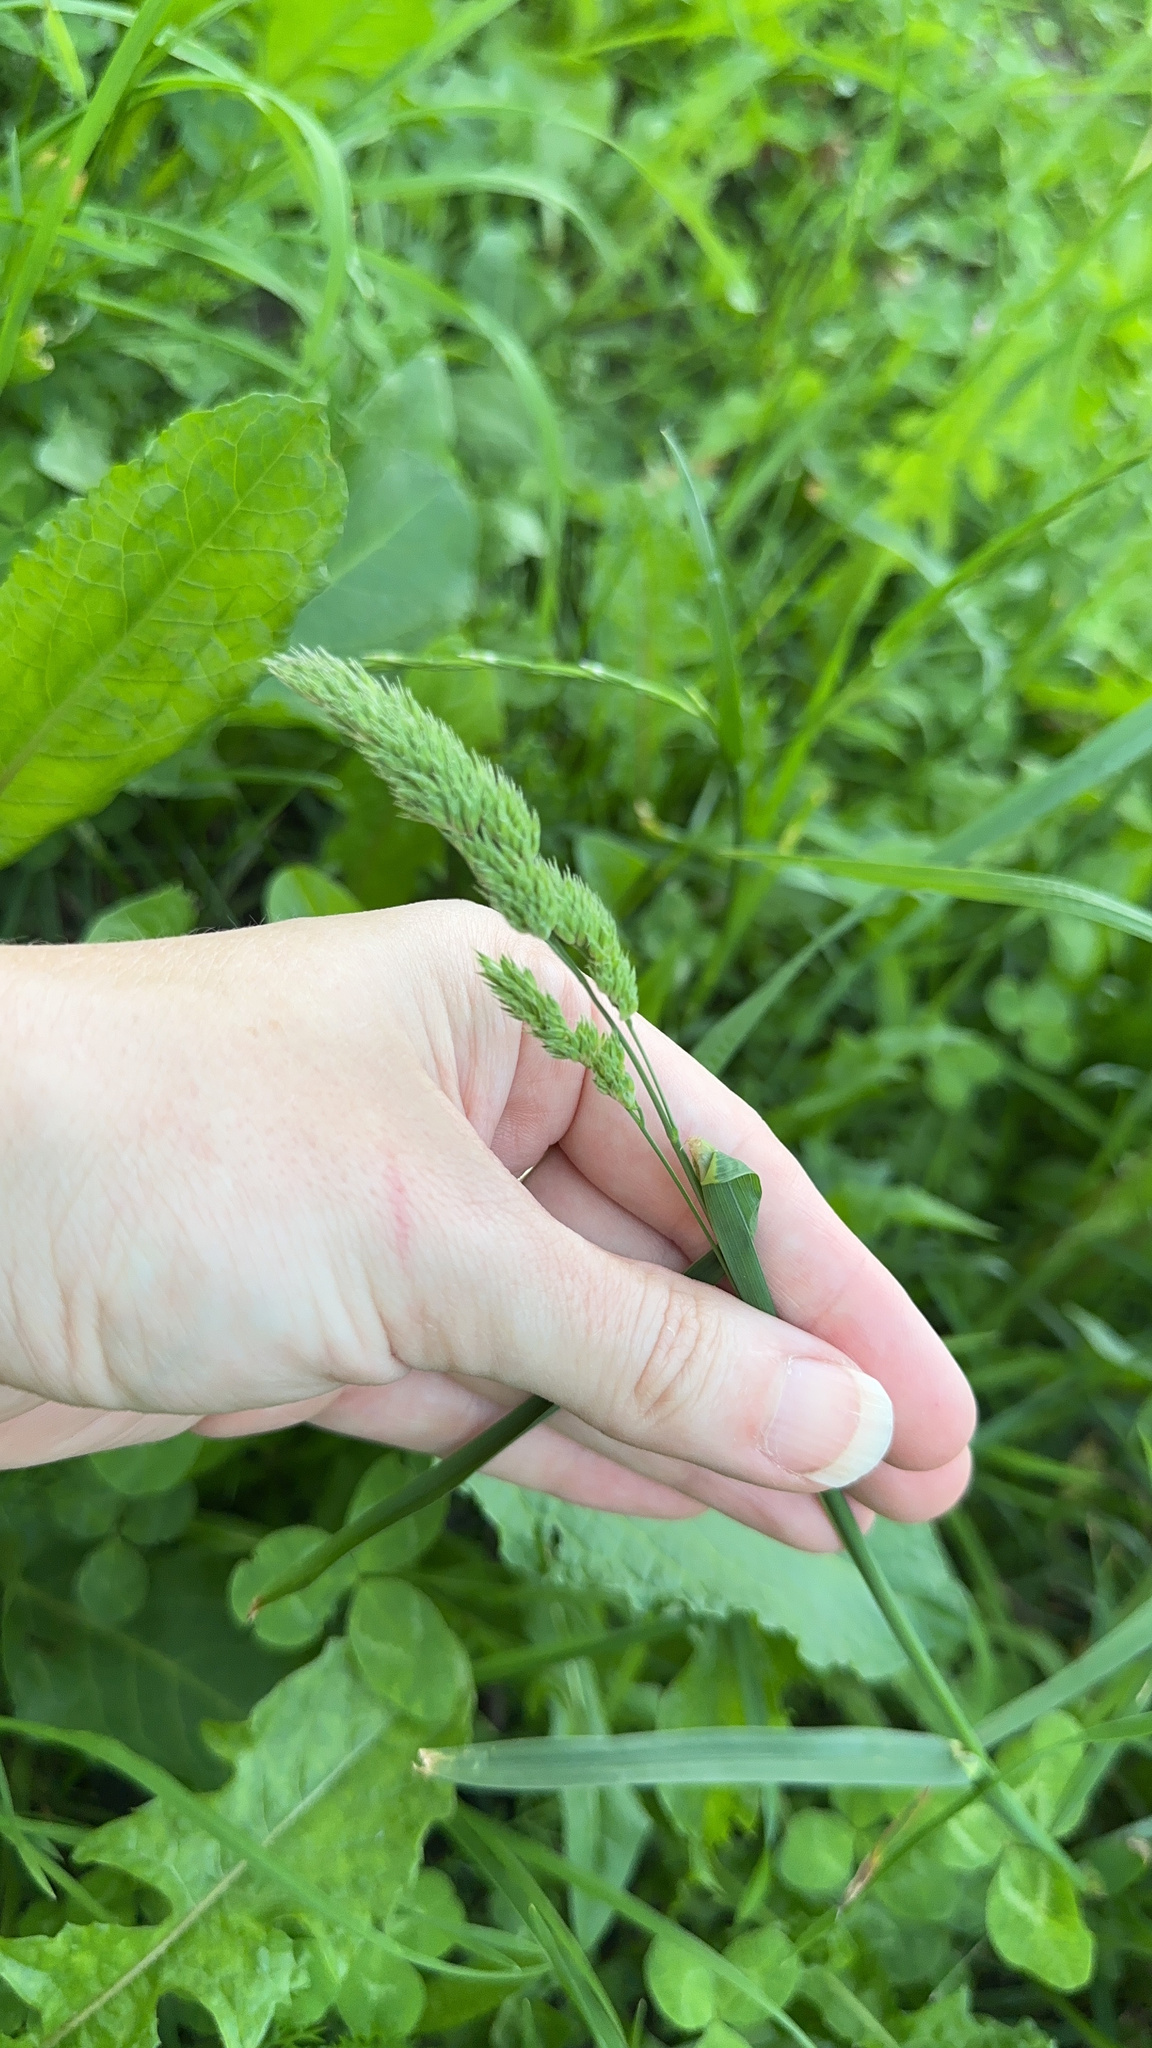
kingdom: Plantae
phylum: Tracheophyta
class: Liliopsida
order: Poales
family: Poaceae
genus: Dactylis
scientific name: Dactylis glomerata
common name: Orchardgrass
